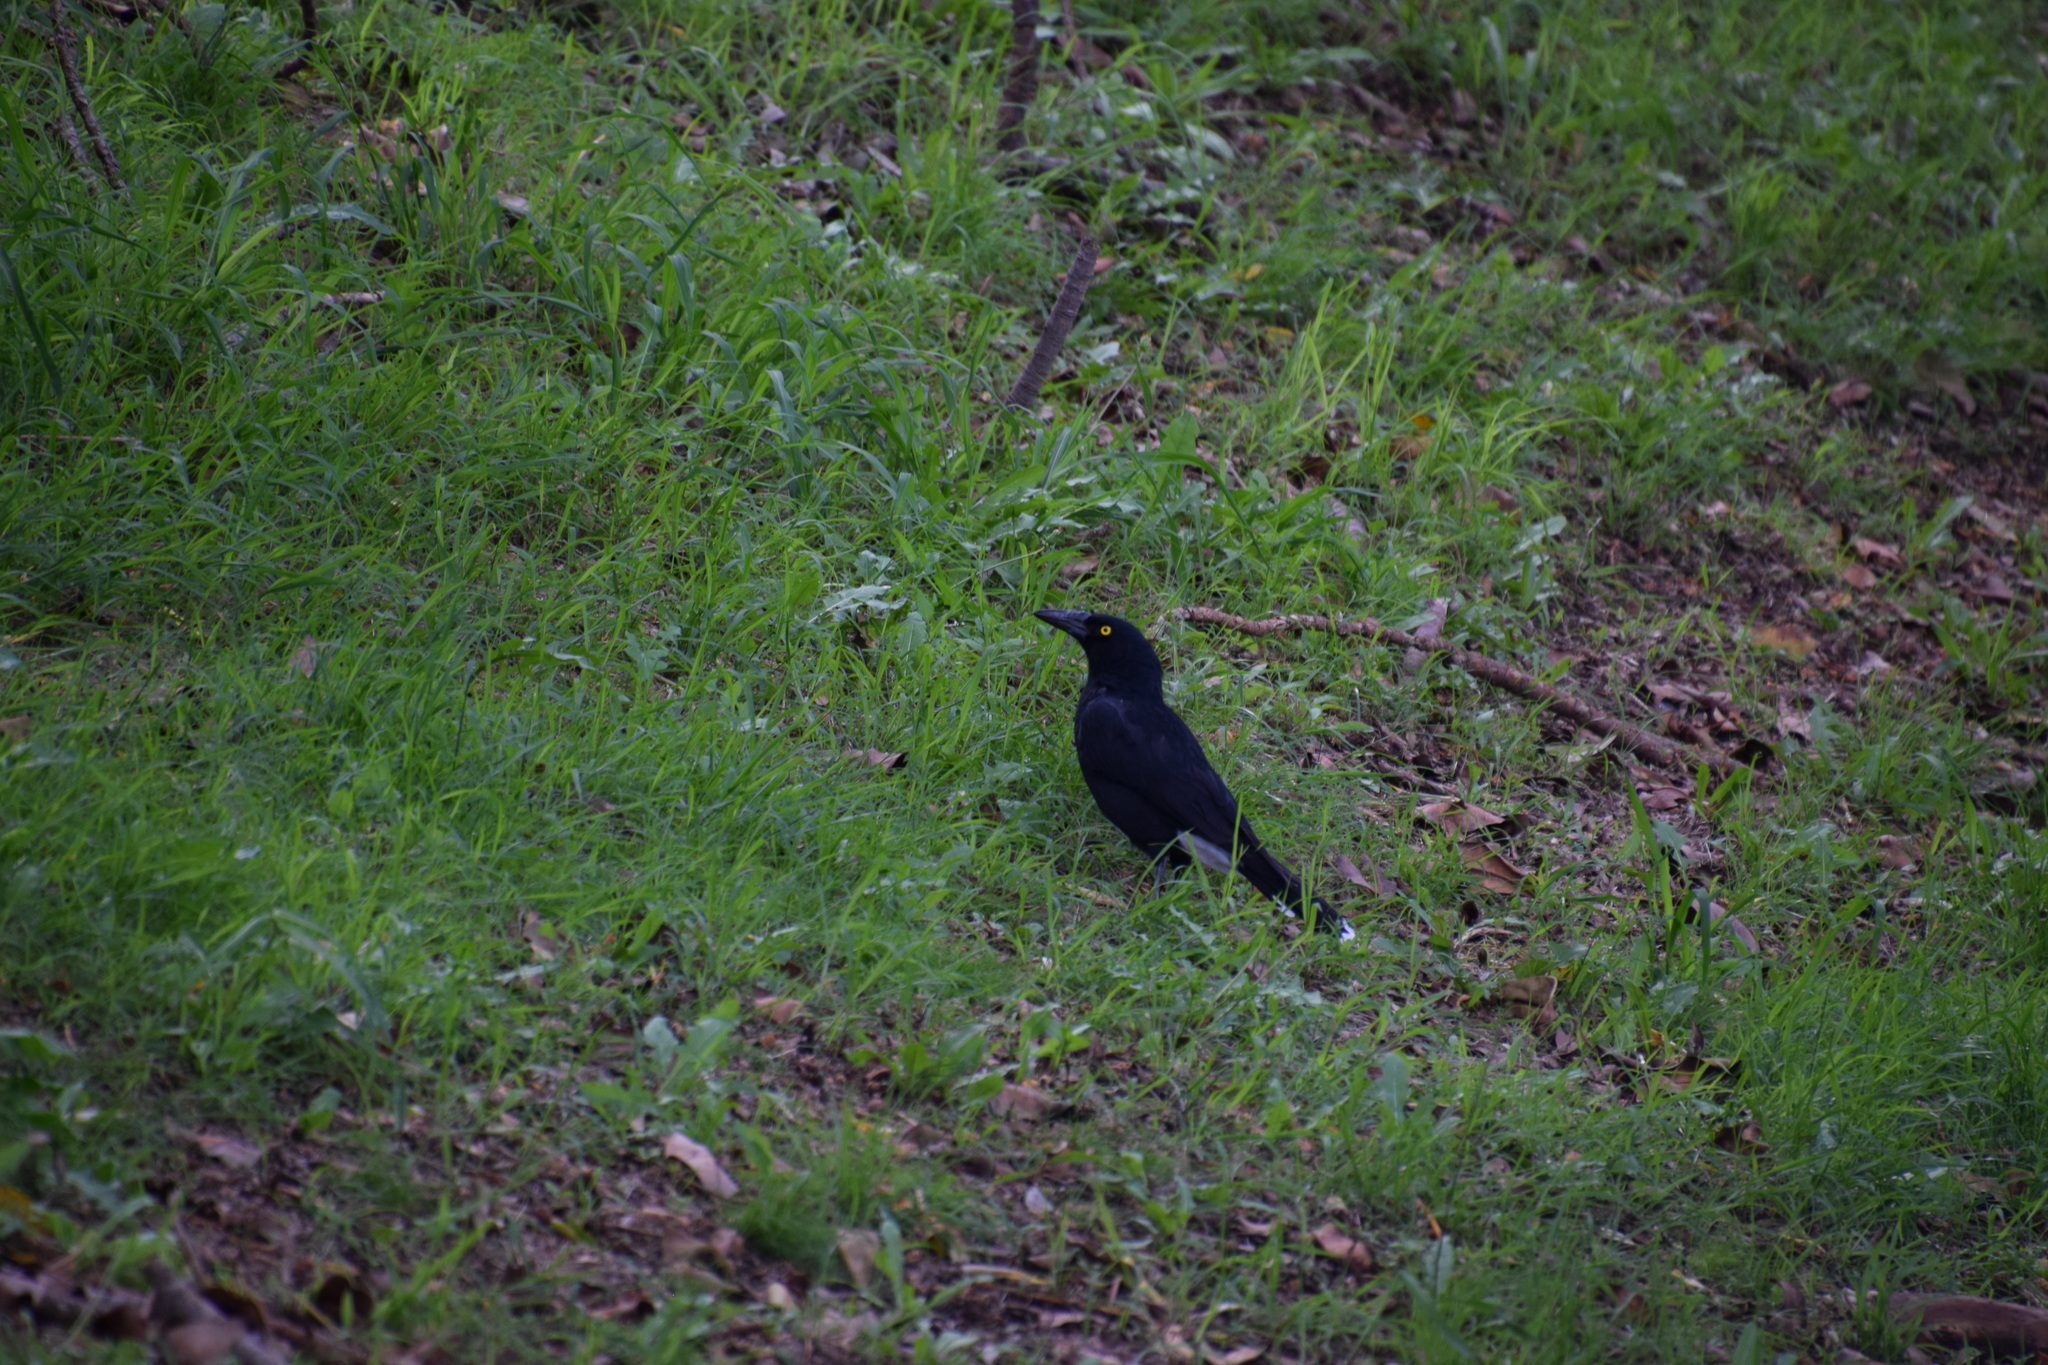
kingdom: Animalia
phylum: Chordata
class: Aves
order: Passeriformes
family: Cracticidae
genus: Strepera
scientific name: Strepera graculina
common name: Pied currawong
